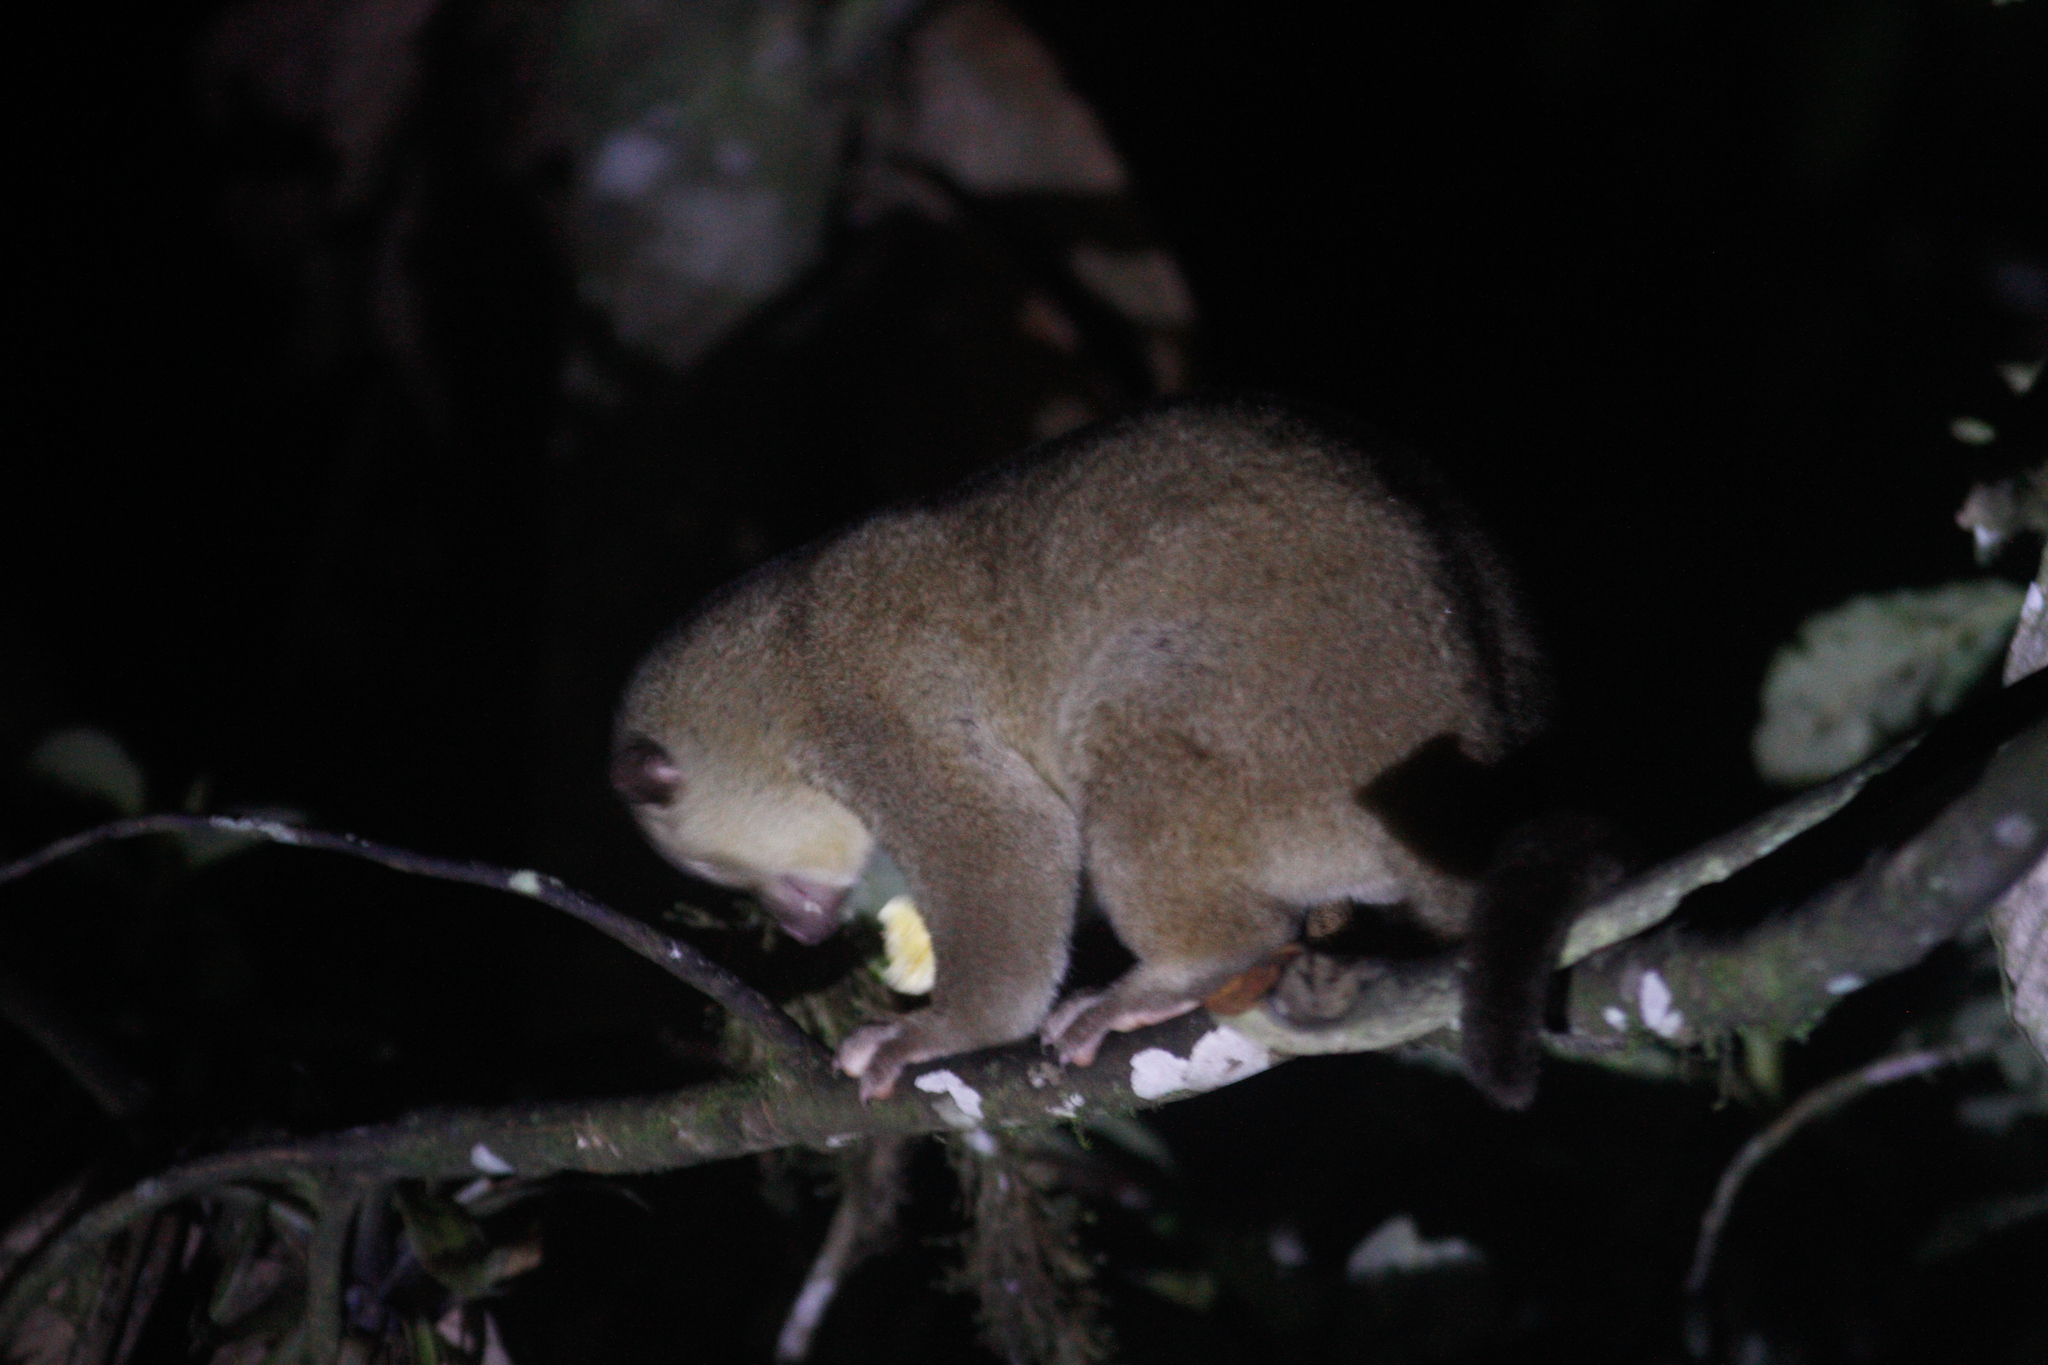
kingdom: Animalia
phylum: Chordata
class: Mammalia
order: Carnivora
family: Procyonidae
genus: Potos
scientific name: Potos flavus
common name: Kinkajou
